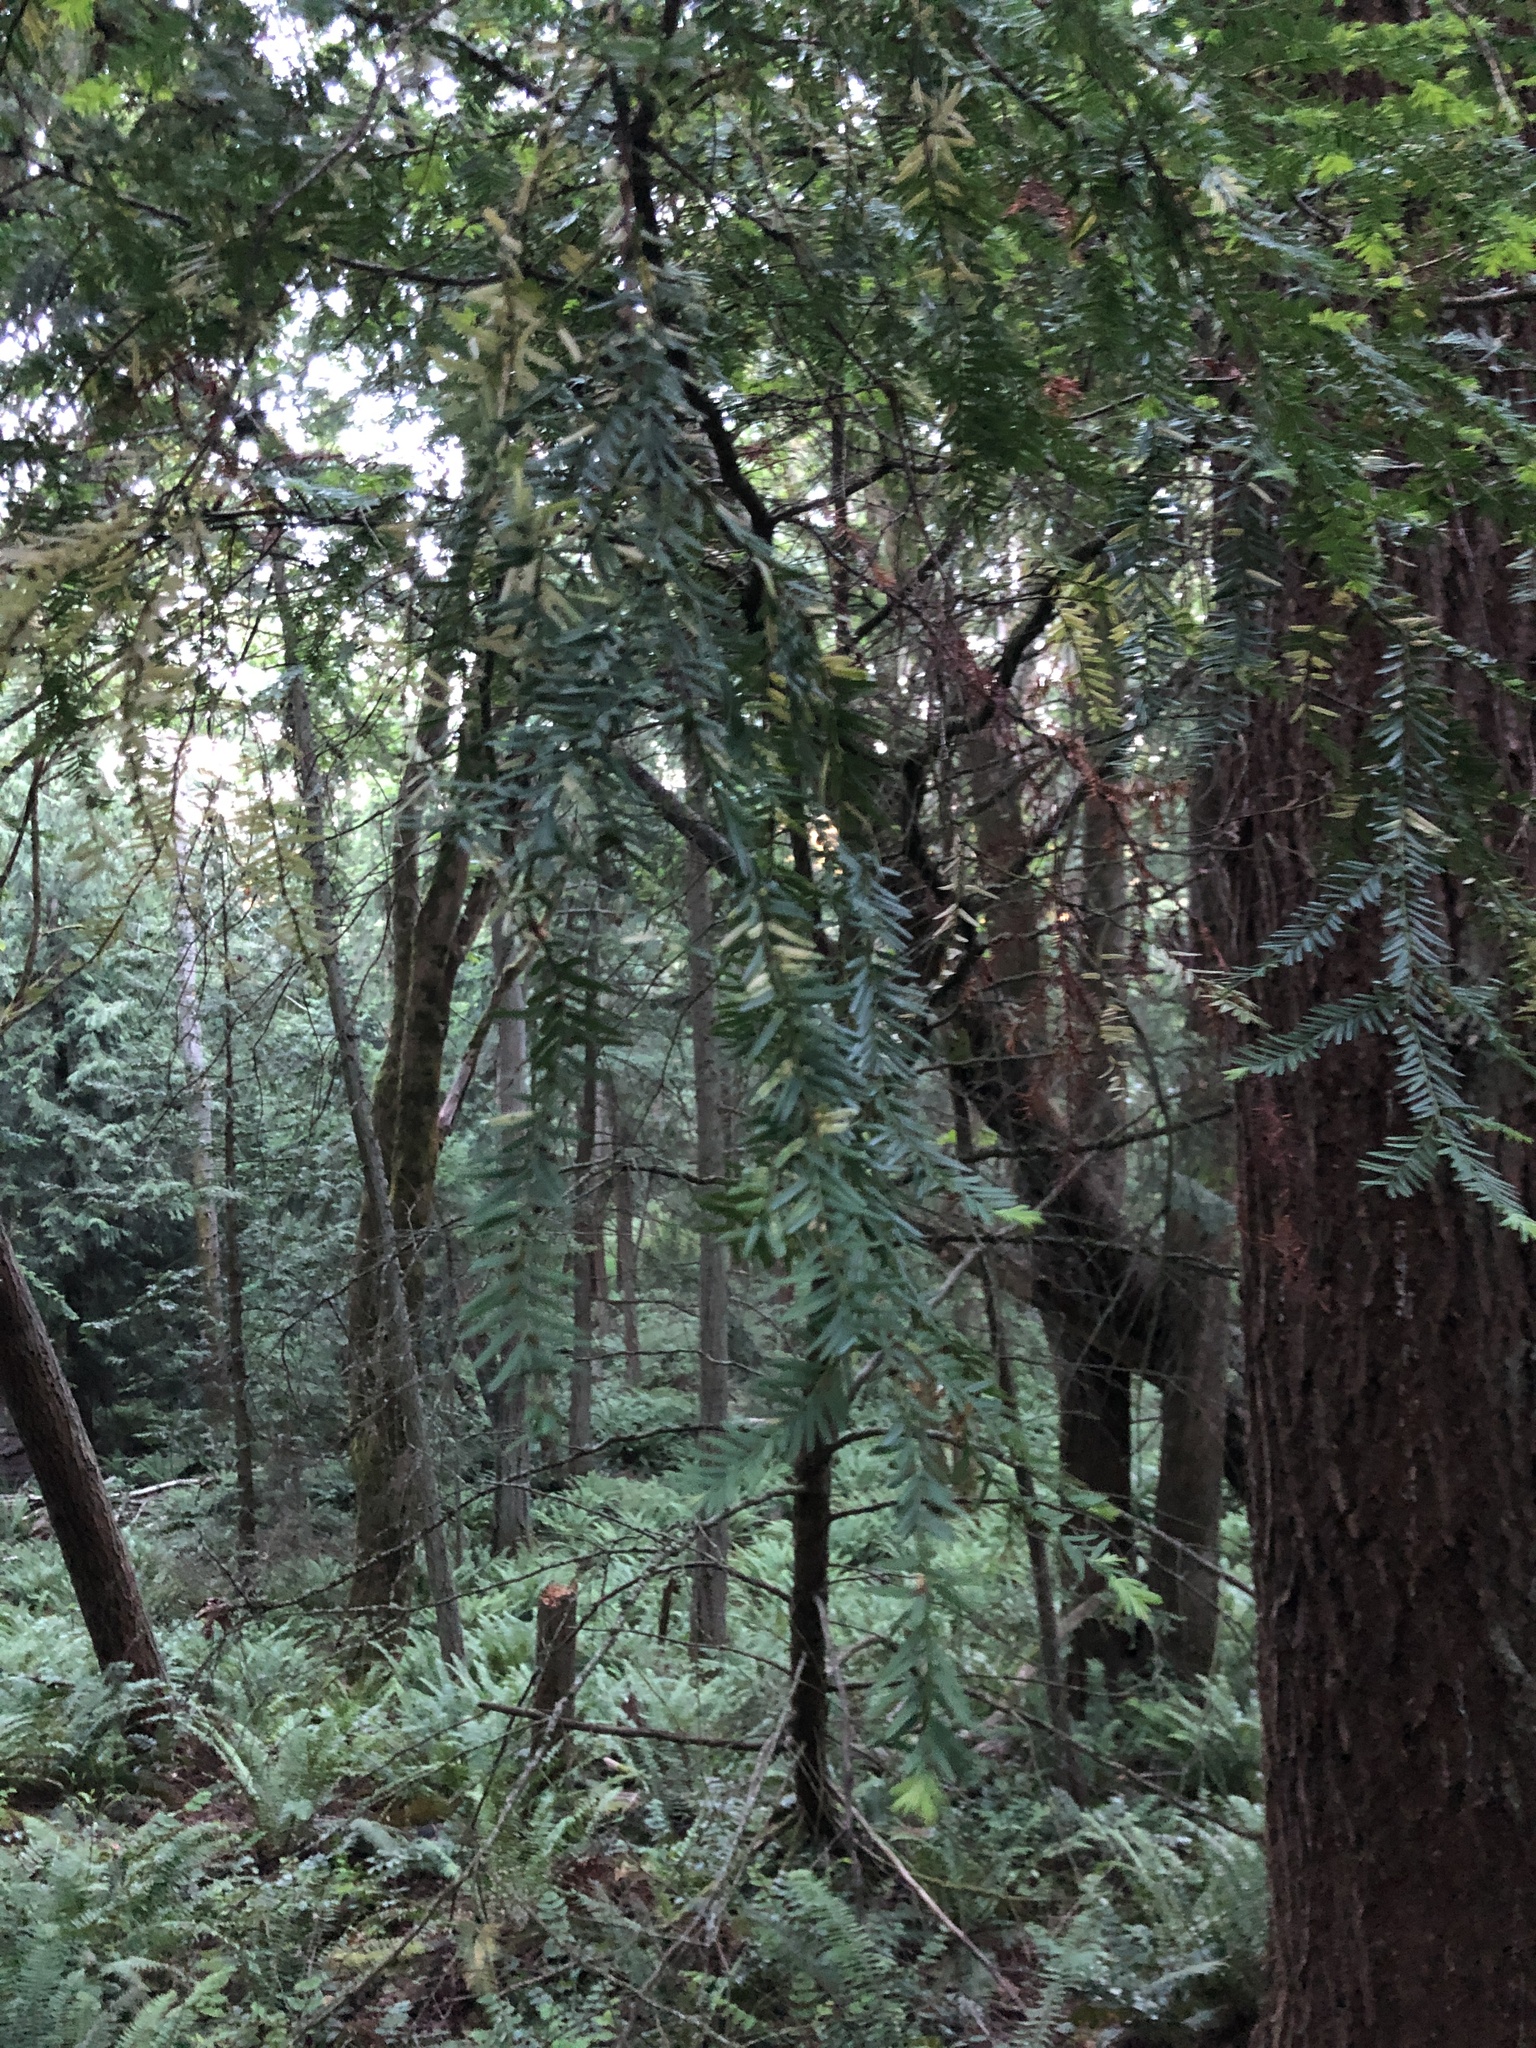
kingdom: Plantae
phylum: Tracheophyta
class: Pinopsida
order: Pinales
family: Taxaceae
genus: Taxus
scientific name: Taxus brevifolia
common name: Pacific yew
